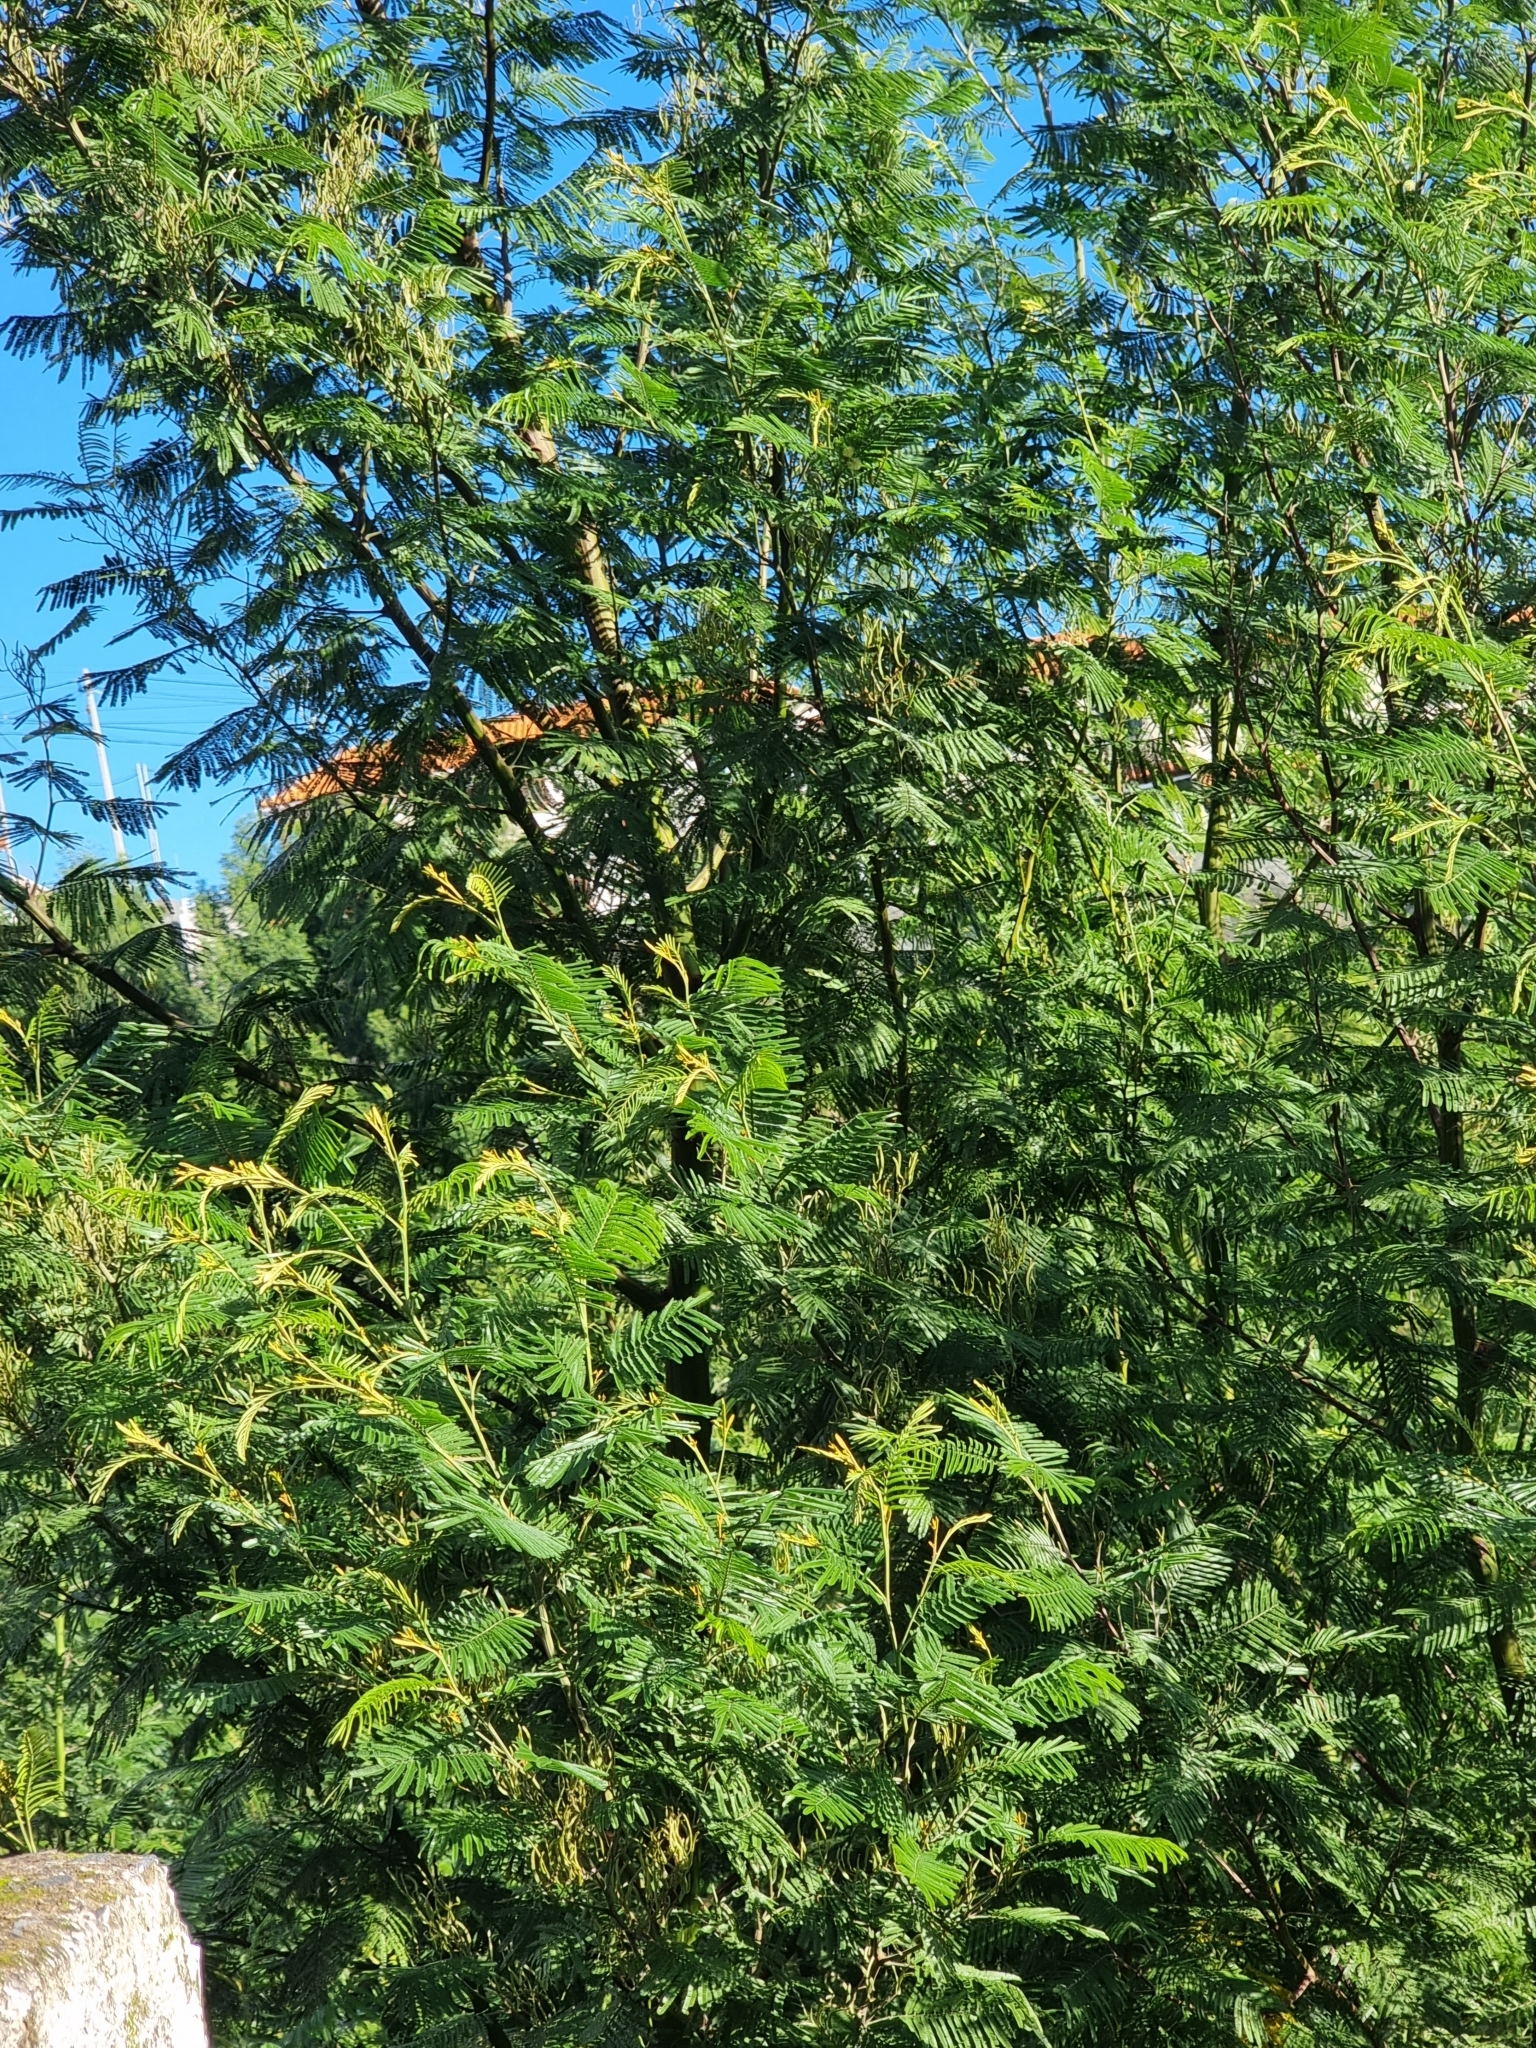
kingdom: Plantae
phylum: Tracheophyta
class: Magnoliopsida
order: Fabales
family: Fabaceae
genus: Acacia
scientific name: Acacia mearnsii
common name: Black wattle
